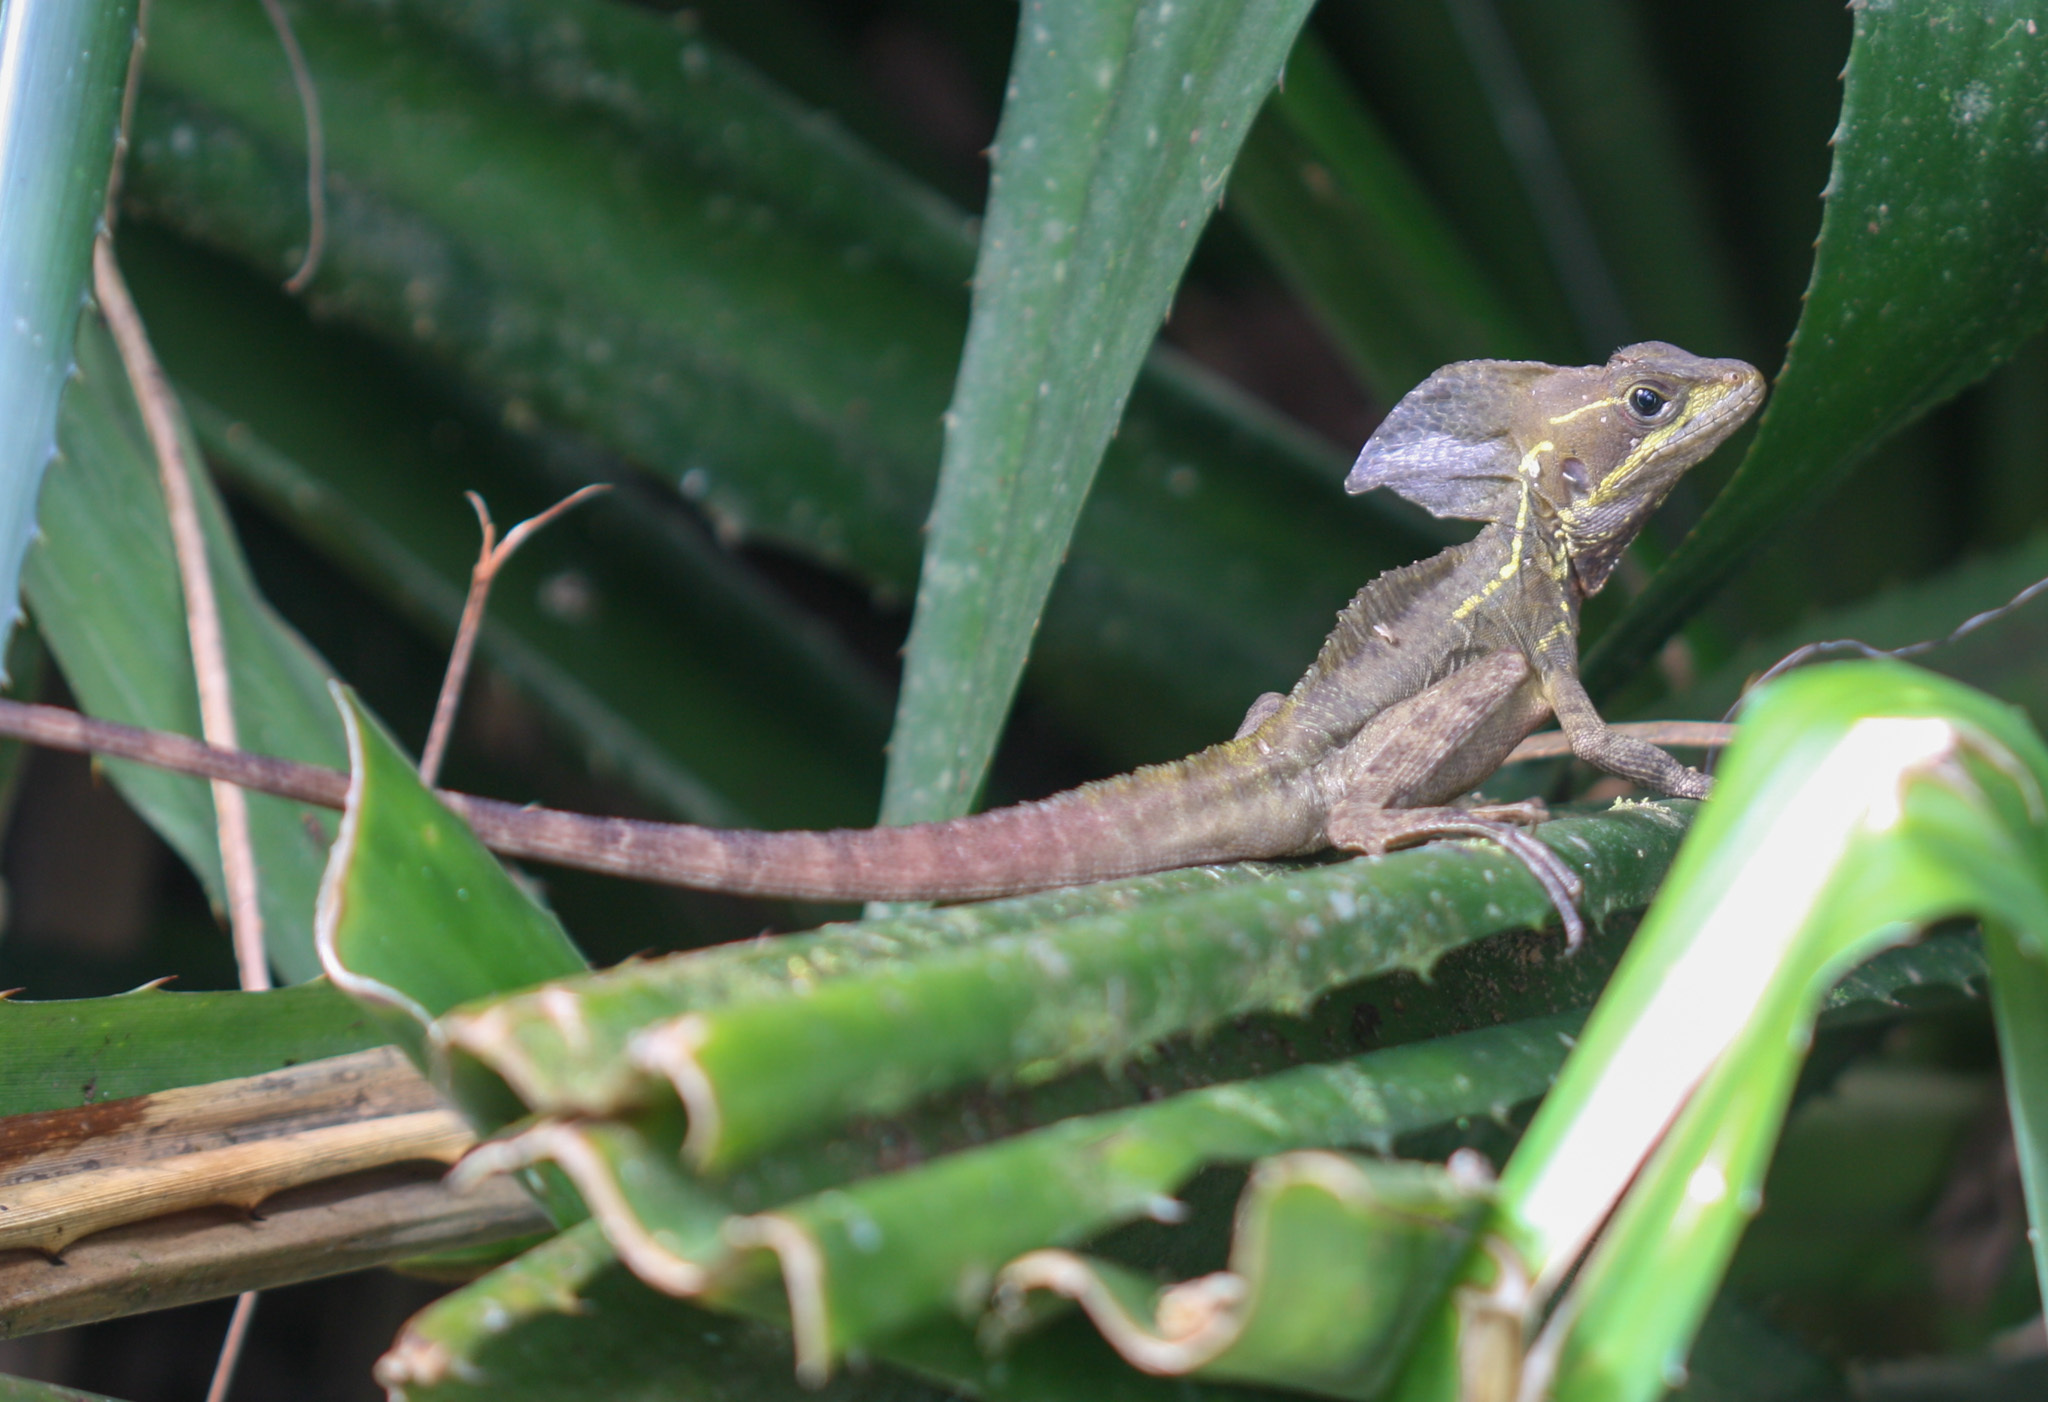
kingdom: Animalia
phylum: Chordata
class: Squamata
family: Corytophanidae
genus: Basiliscus
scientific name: Basiliscus vittatus
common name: Brown basilisk
